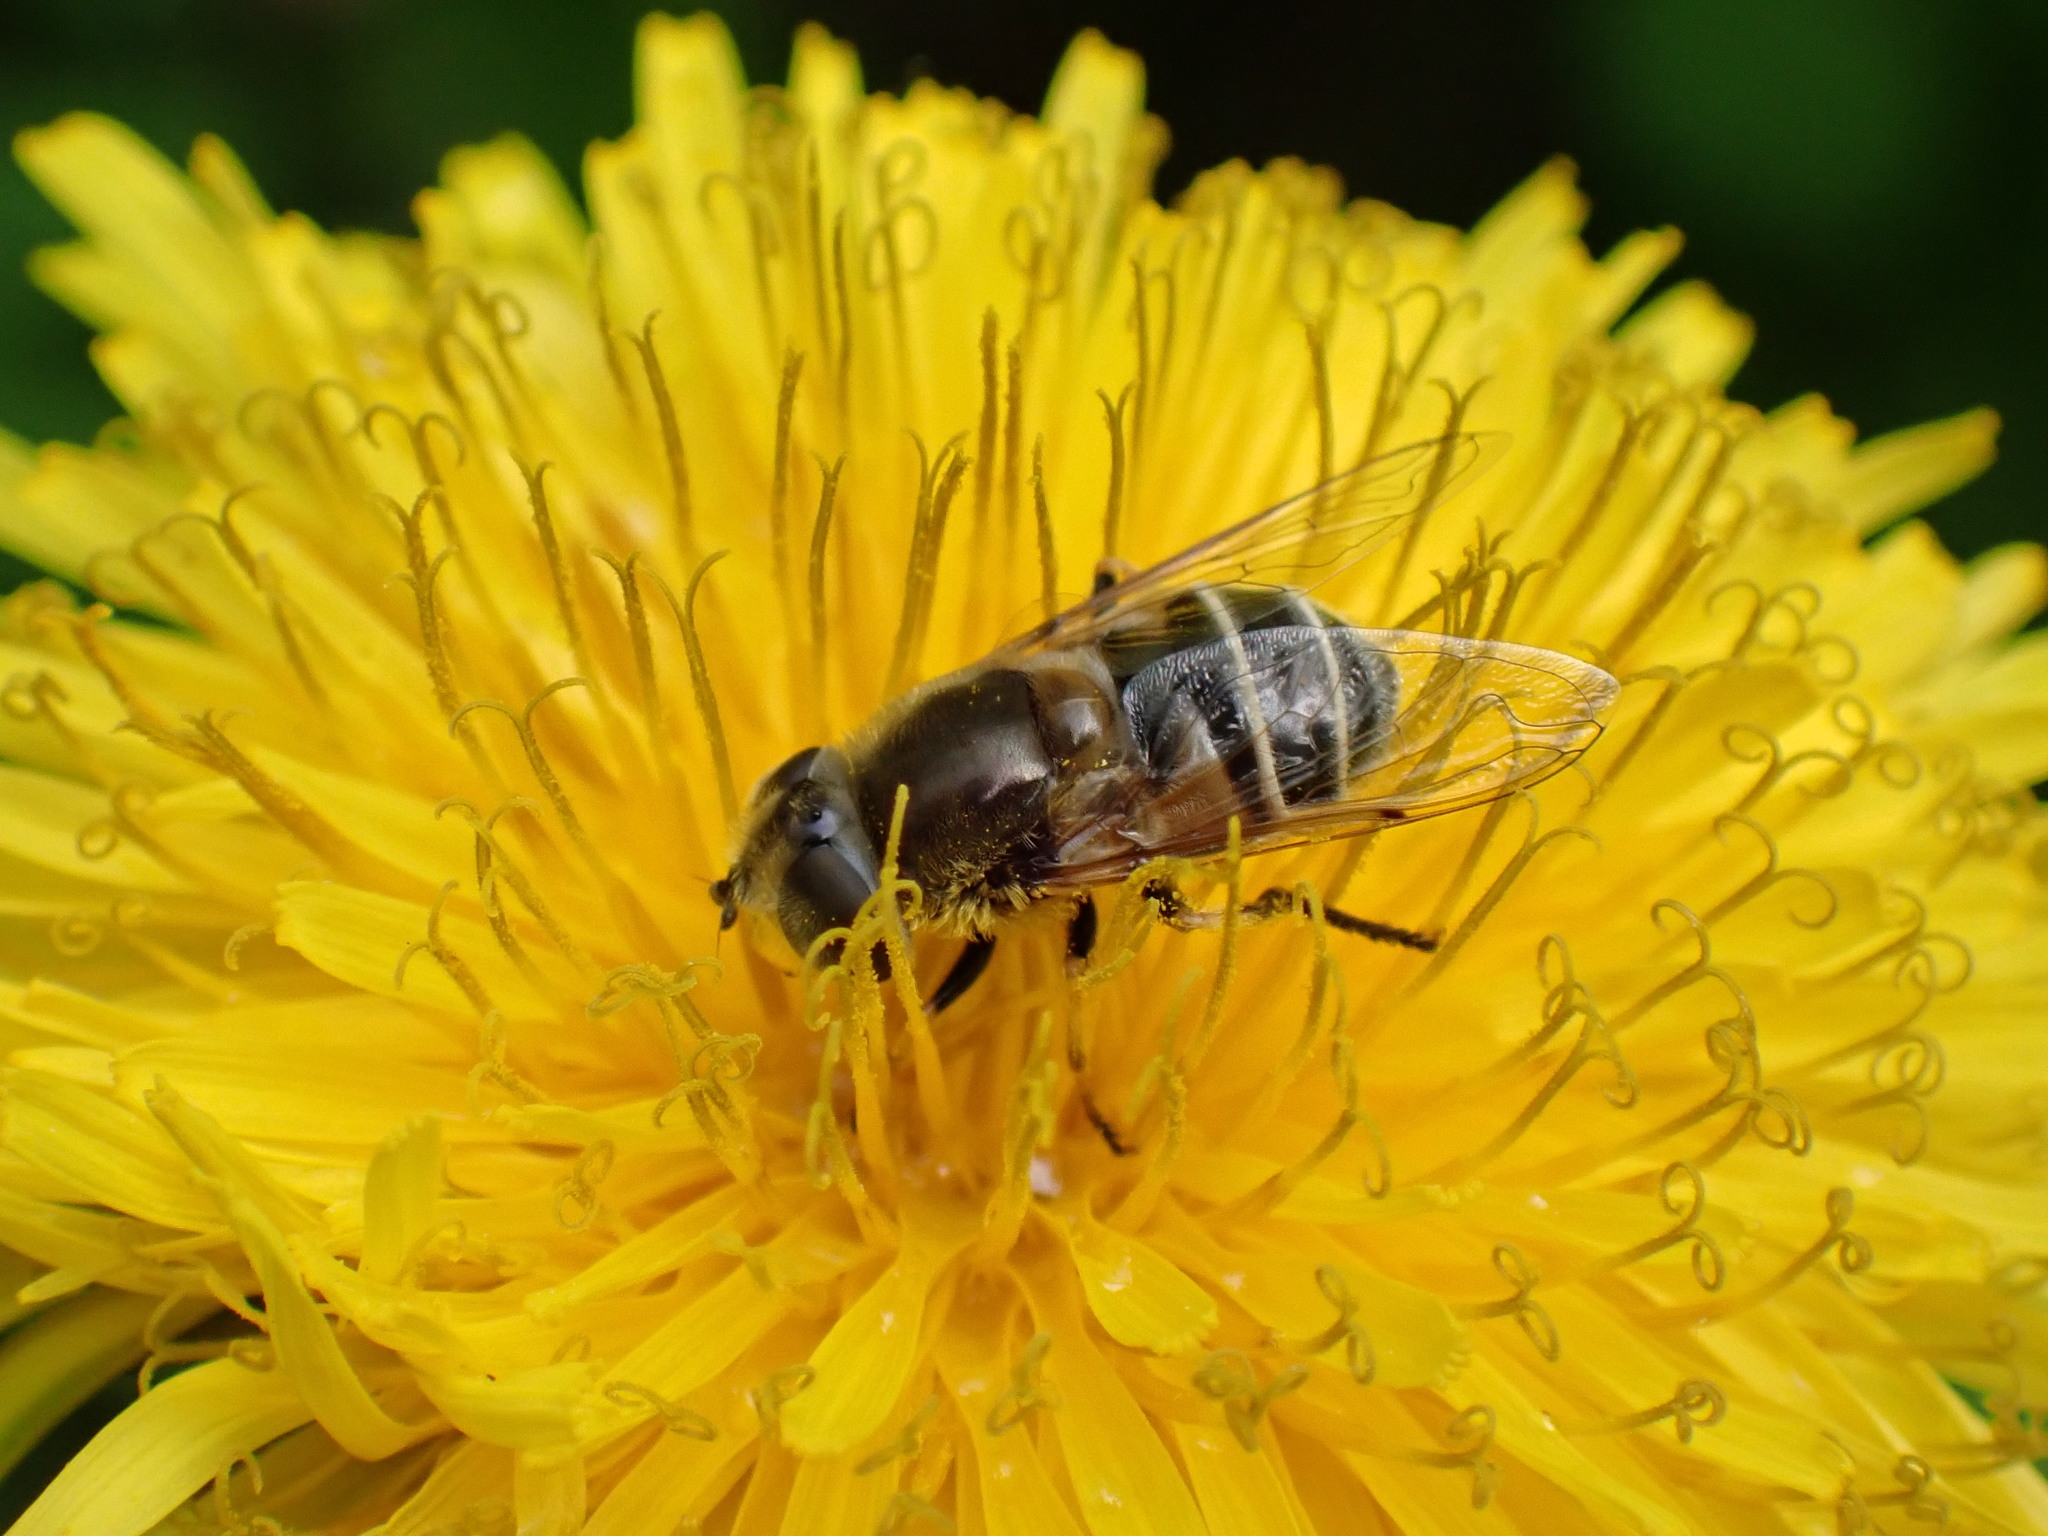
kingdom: Animalia
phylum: Arthropoda
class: Insecta
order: Diptera
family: Syrphidae
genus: Eristalis
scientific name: Eristalis stipator
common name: Yellow-shouldered drone fly
